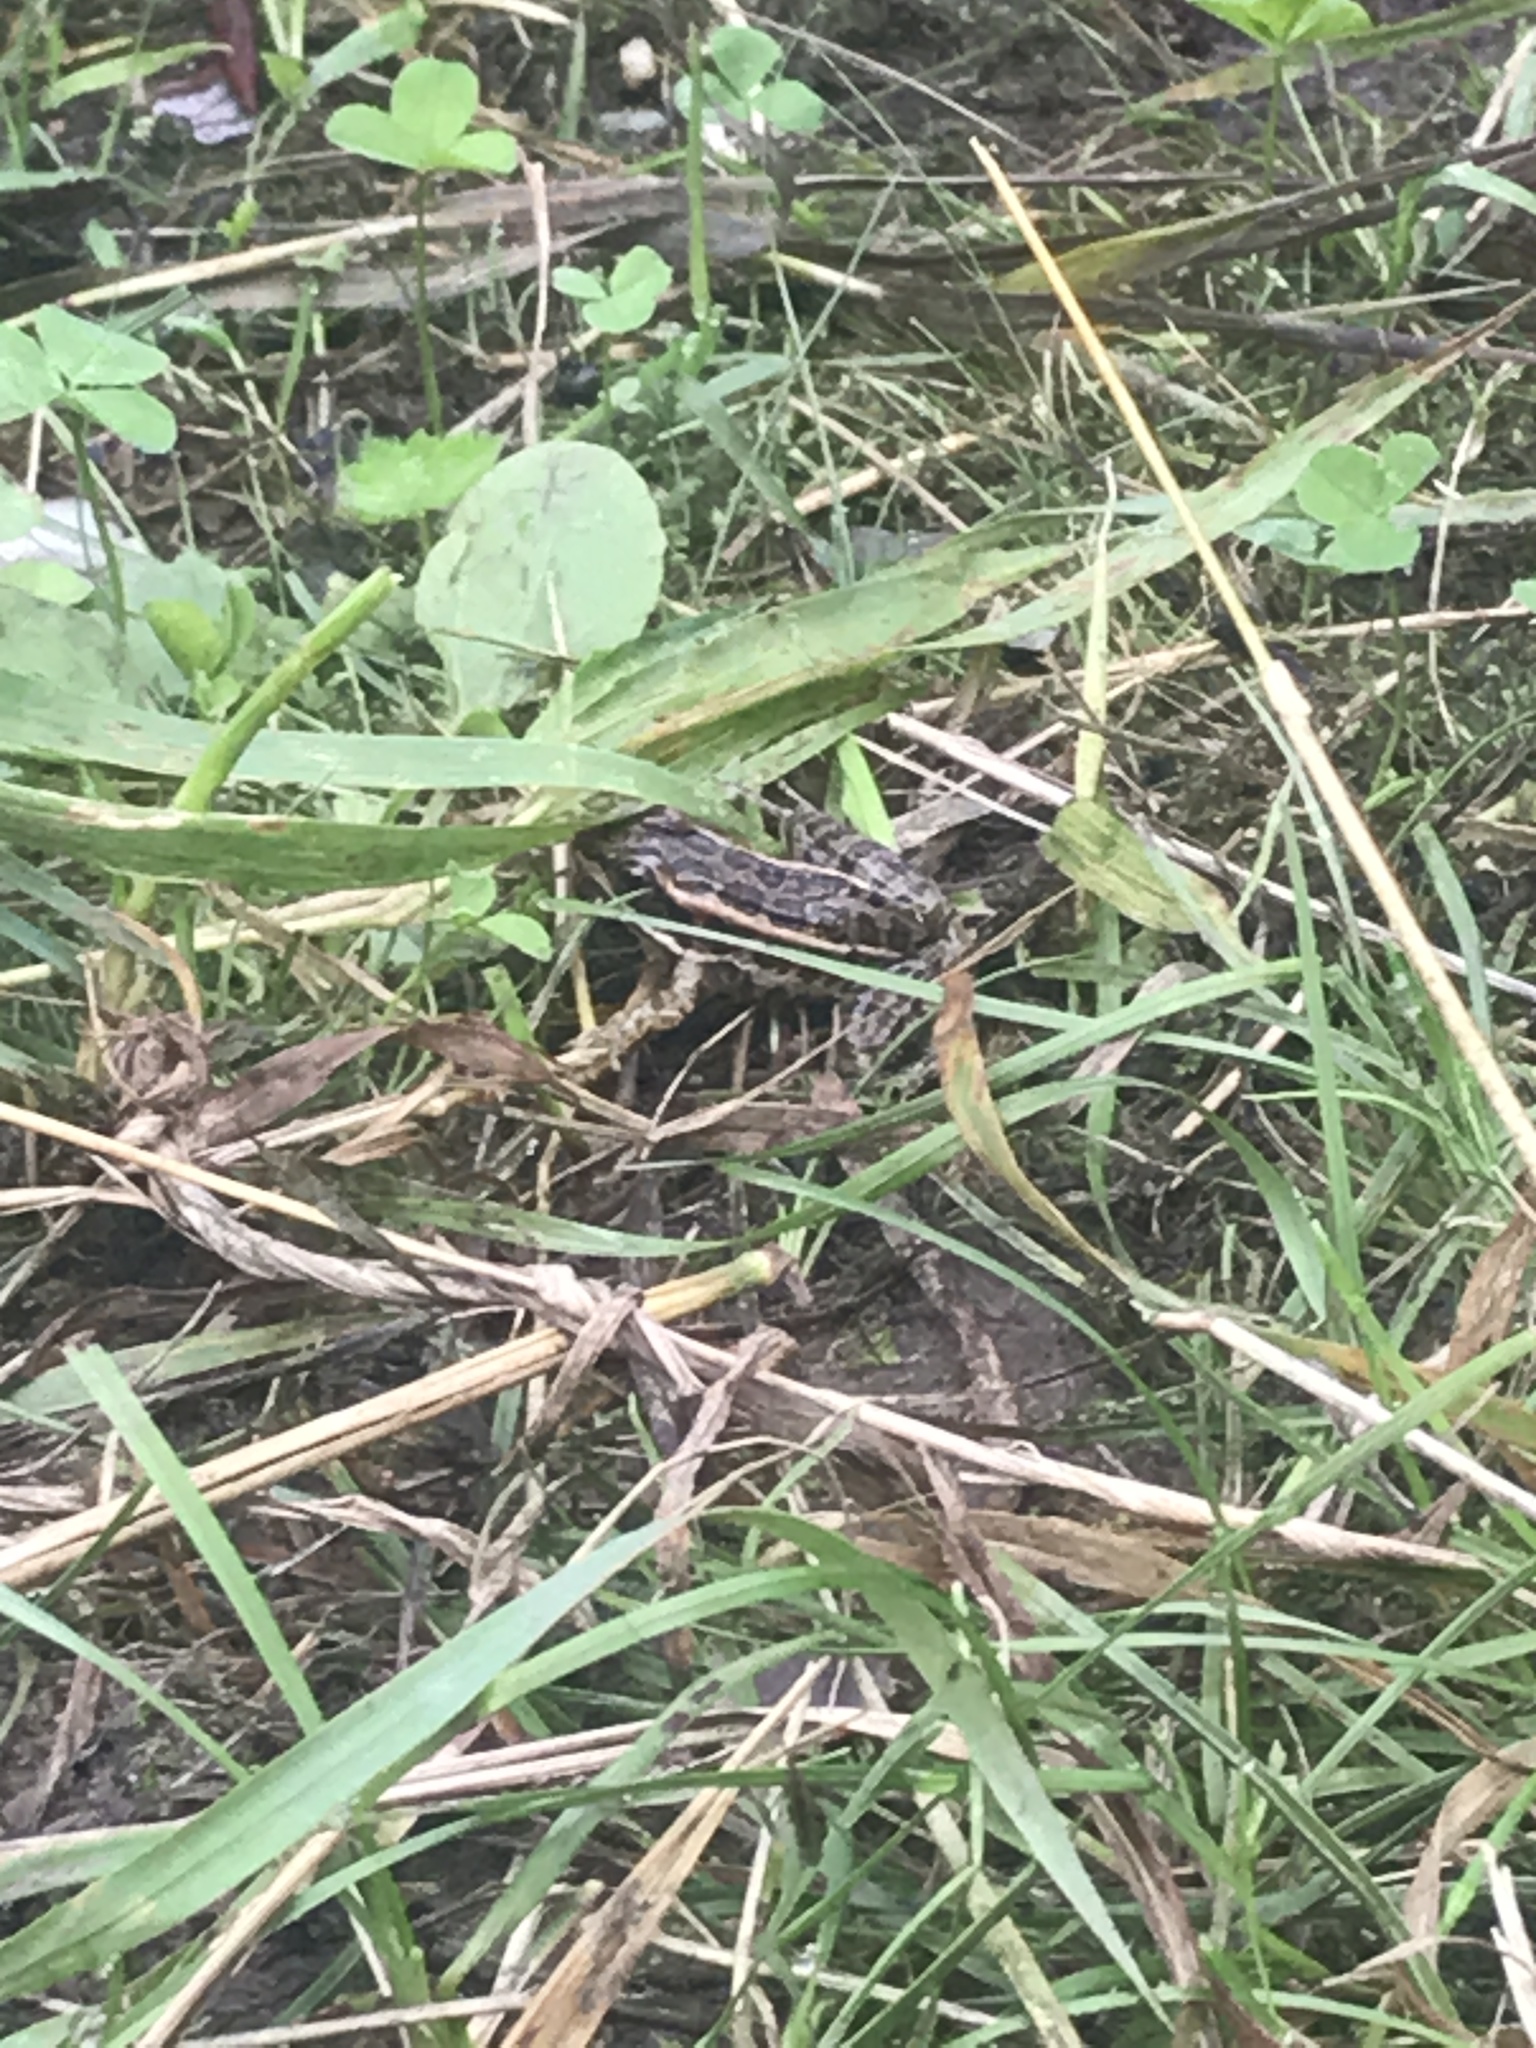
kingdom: Animalia
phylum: Chordata
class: Amphibia
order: Anura
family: Ranidae
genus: Lithobates
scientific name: Lithobates palustris
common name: Pickerel frog
